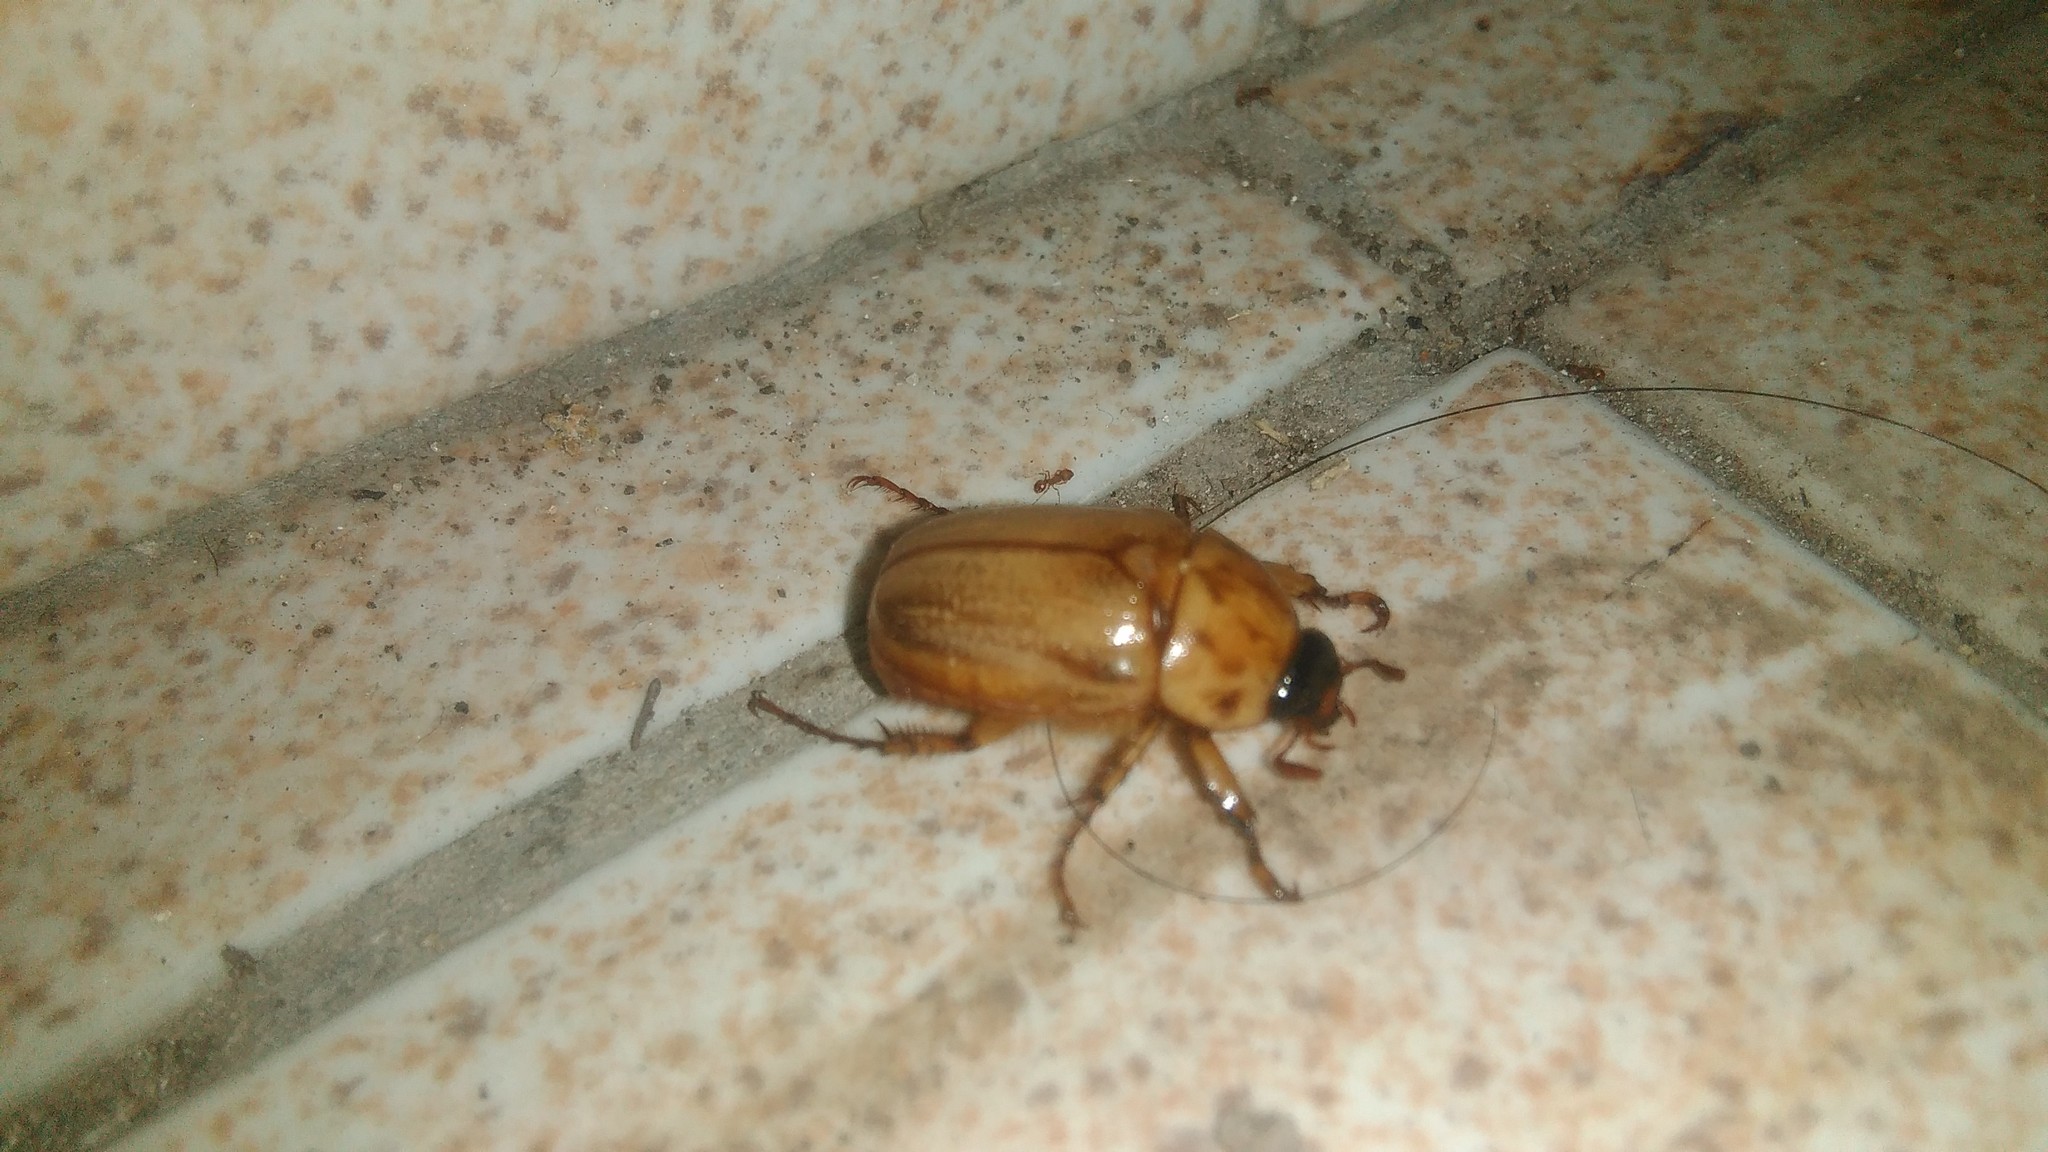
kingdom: Animalia
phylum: Arthropoda
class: Insecta
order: Coleoptera
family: Scarabaeidae
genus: Cyclocephala
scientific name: Cyclocephala signaticollis
